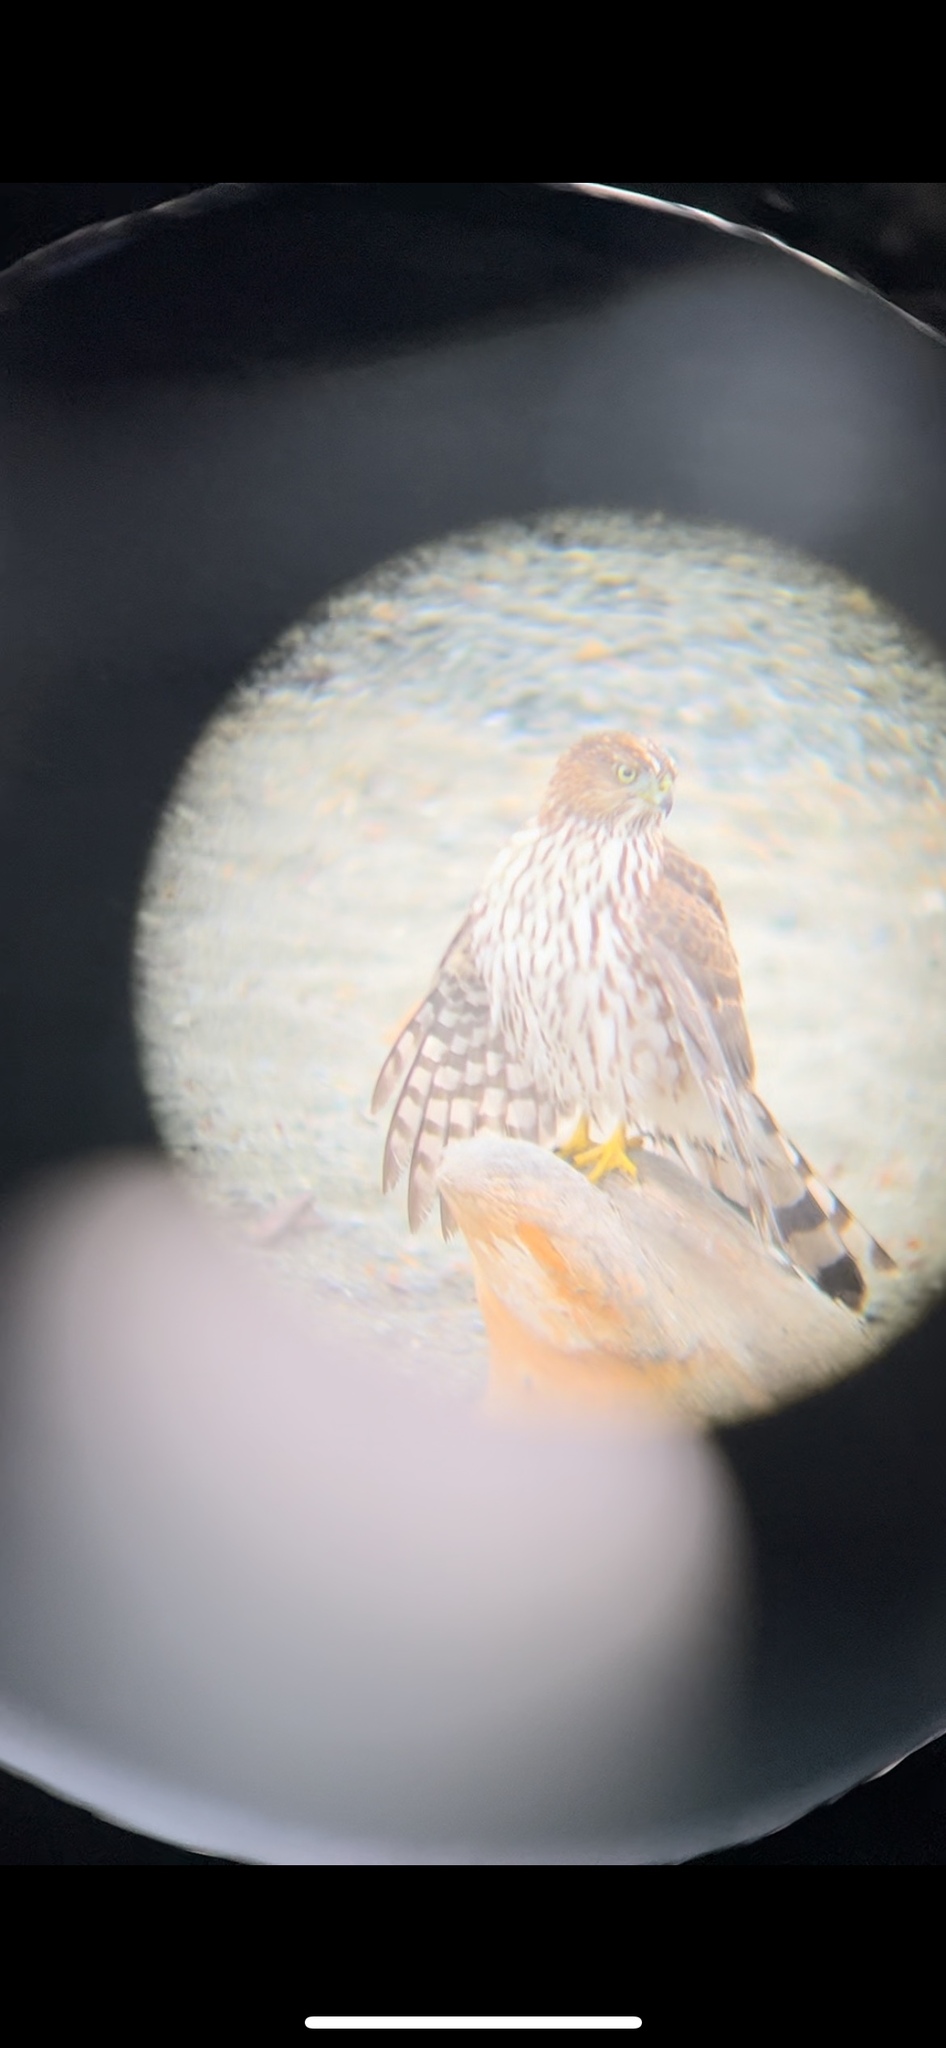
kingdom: Animalia
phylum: Chordata
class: Aves
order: Accipitriformes
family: Accipitridae
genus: Accipiter
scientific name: Accipiter cooperii
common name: Cooper's hawk
